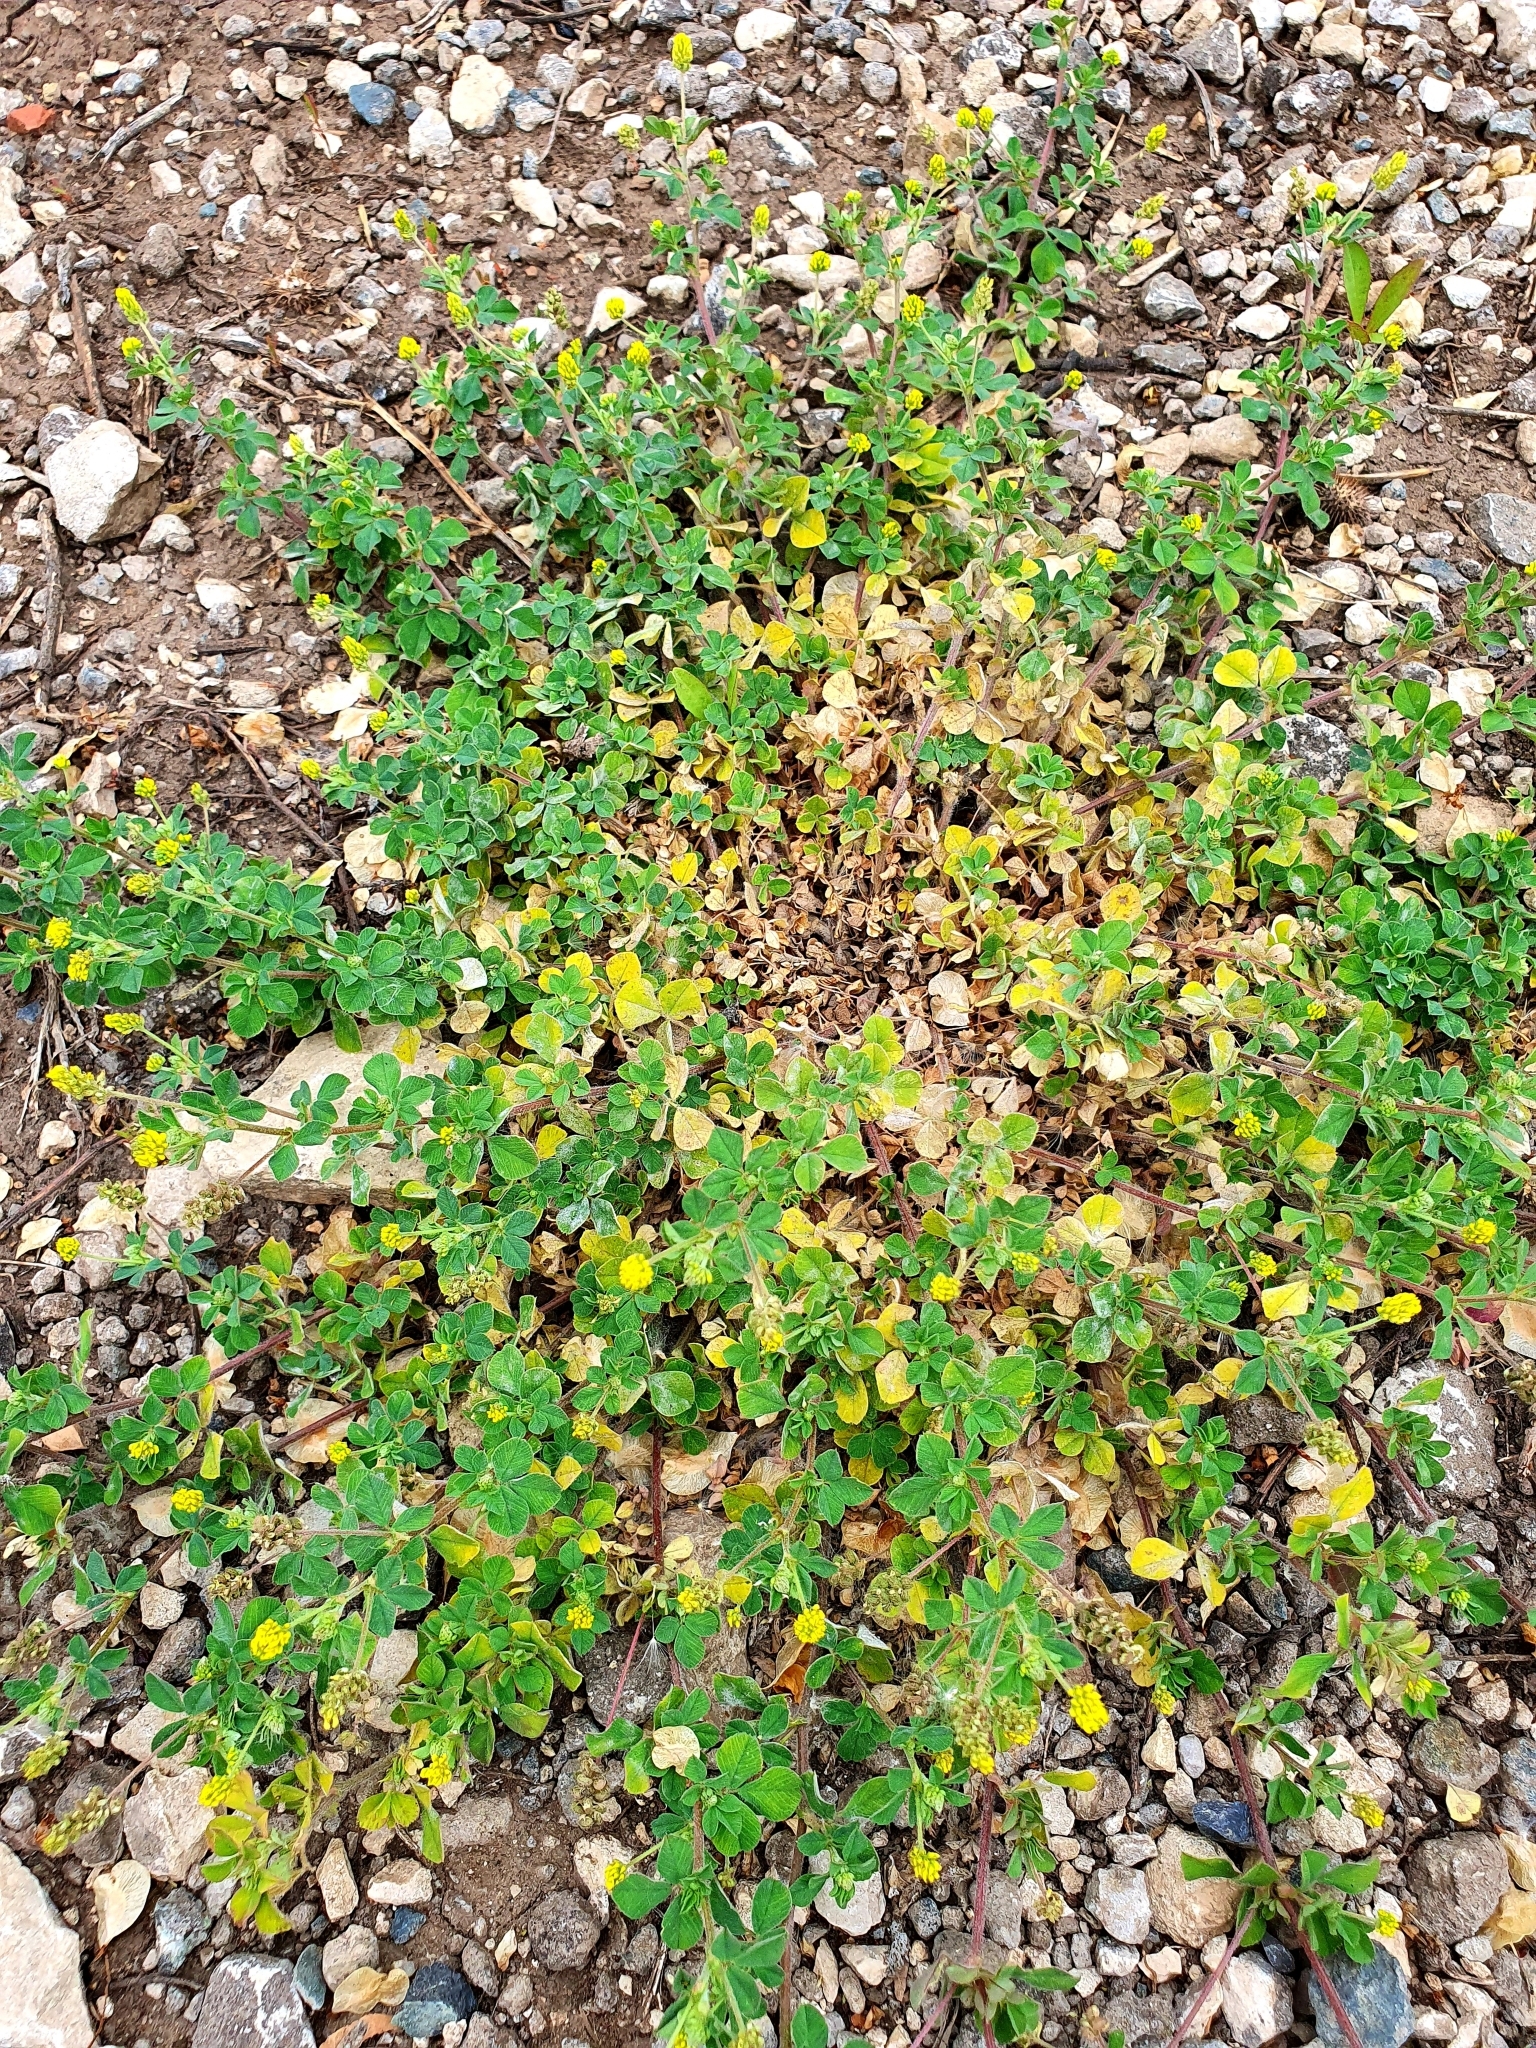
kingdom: Plantae
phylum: Tracheophyta
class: Magnoliopsida
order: Fabales
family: Fabaceae
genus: Medicago
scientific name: Medicago lupulina
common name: Black medick
